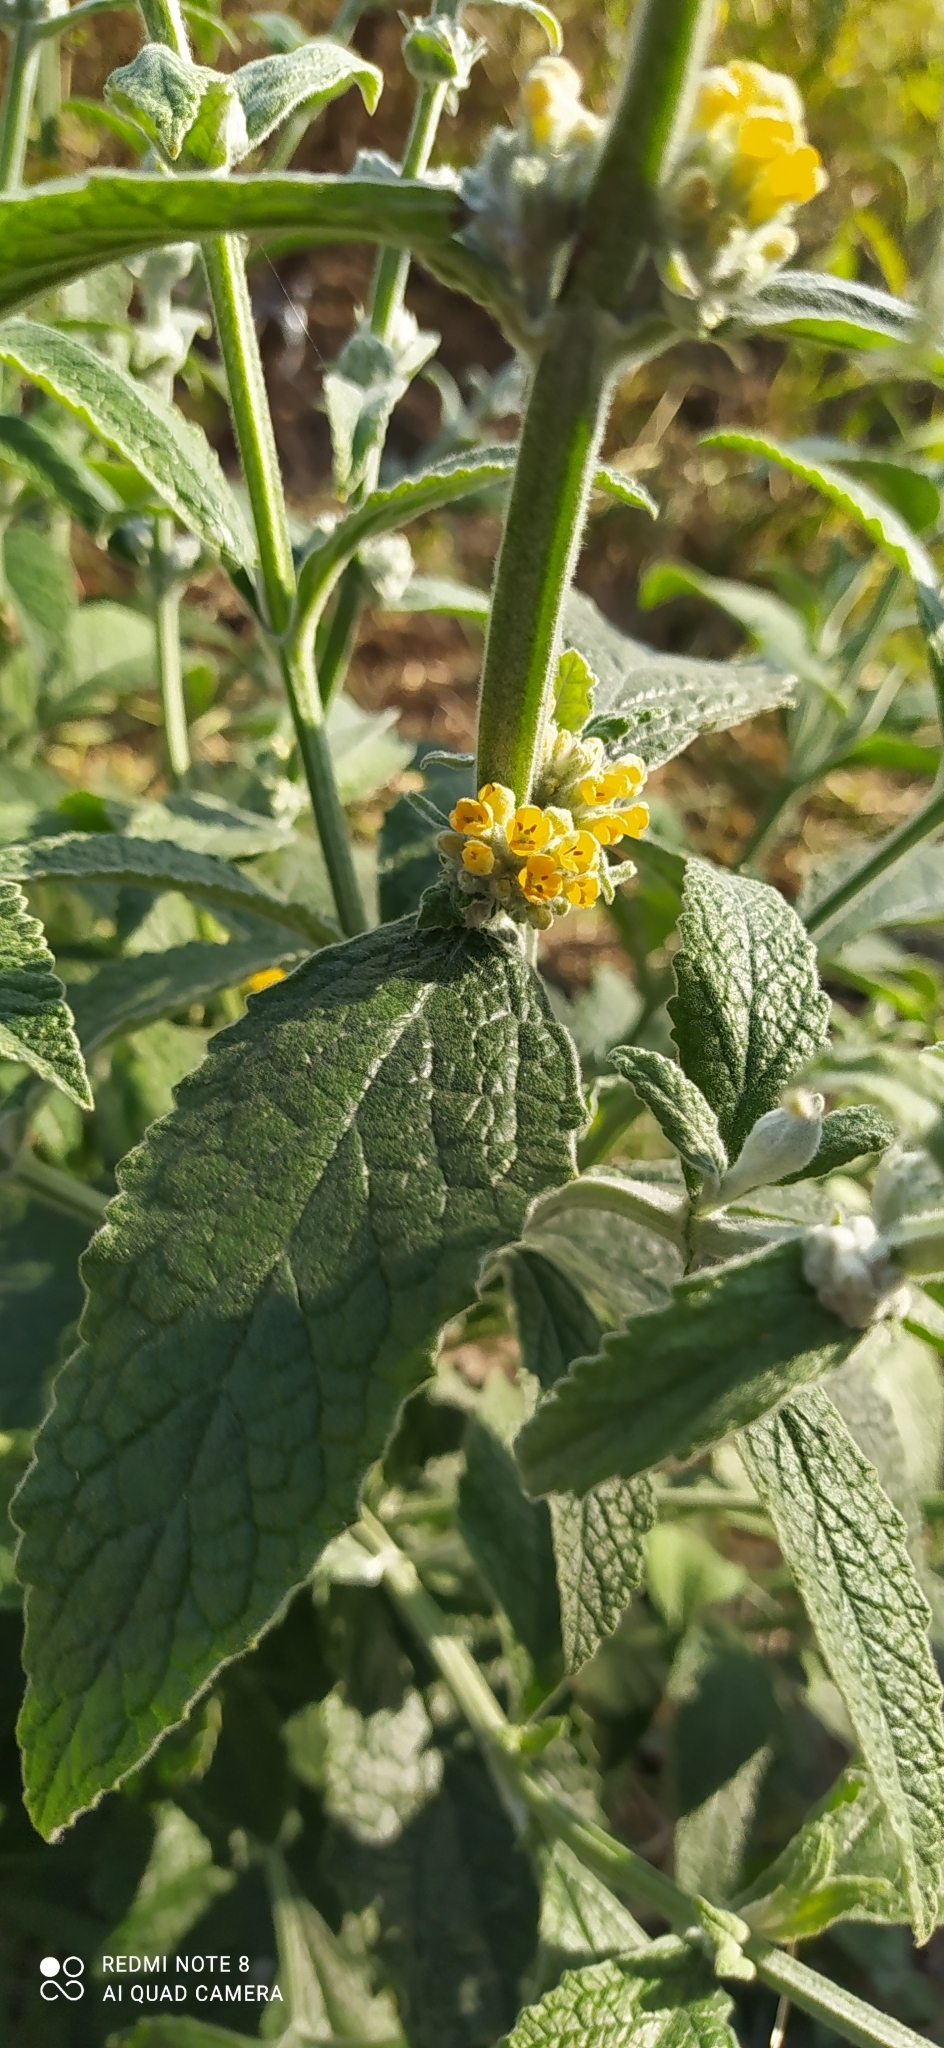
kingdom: Plantae
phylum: Tracheophyta
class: Magnoliopsida
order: Lamiales
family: Scrophulariaceae
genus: Buddleja
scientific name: Buddleja stachyoides
